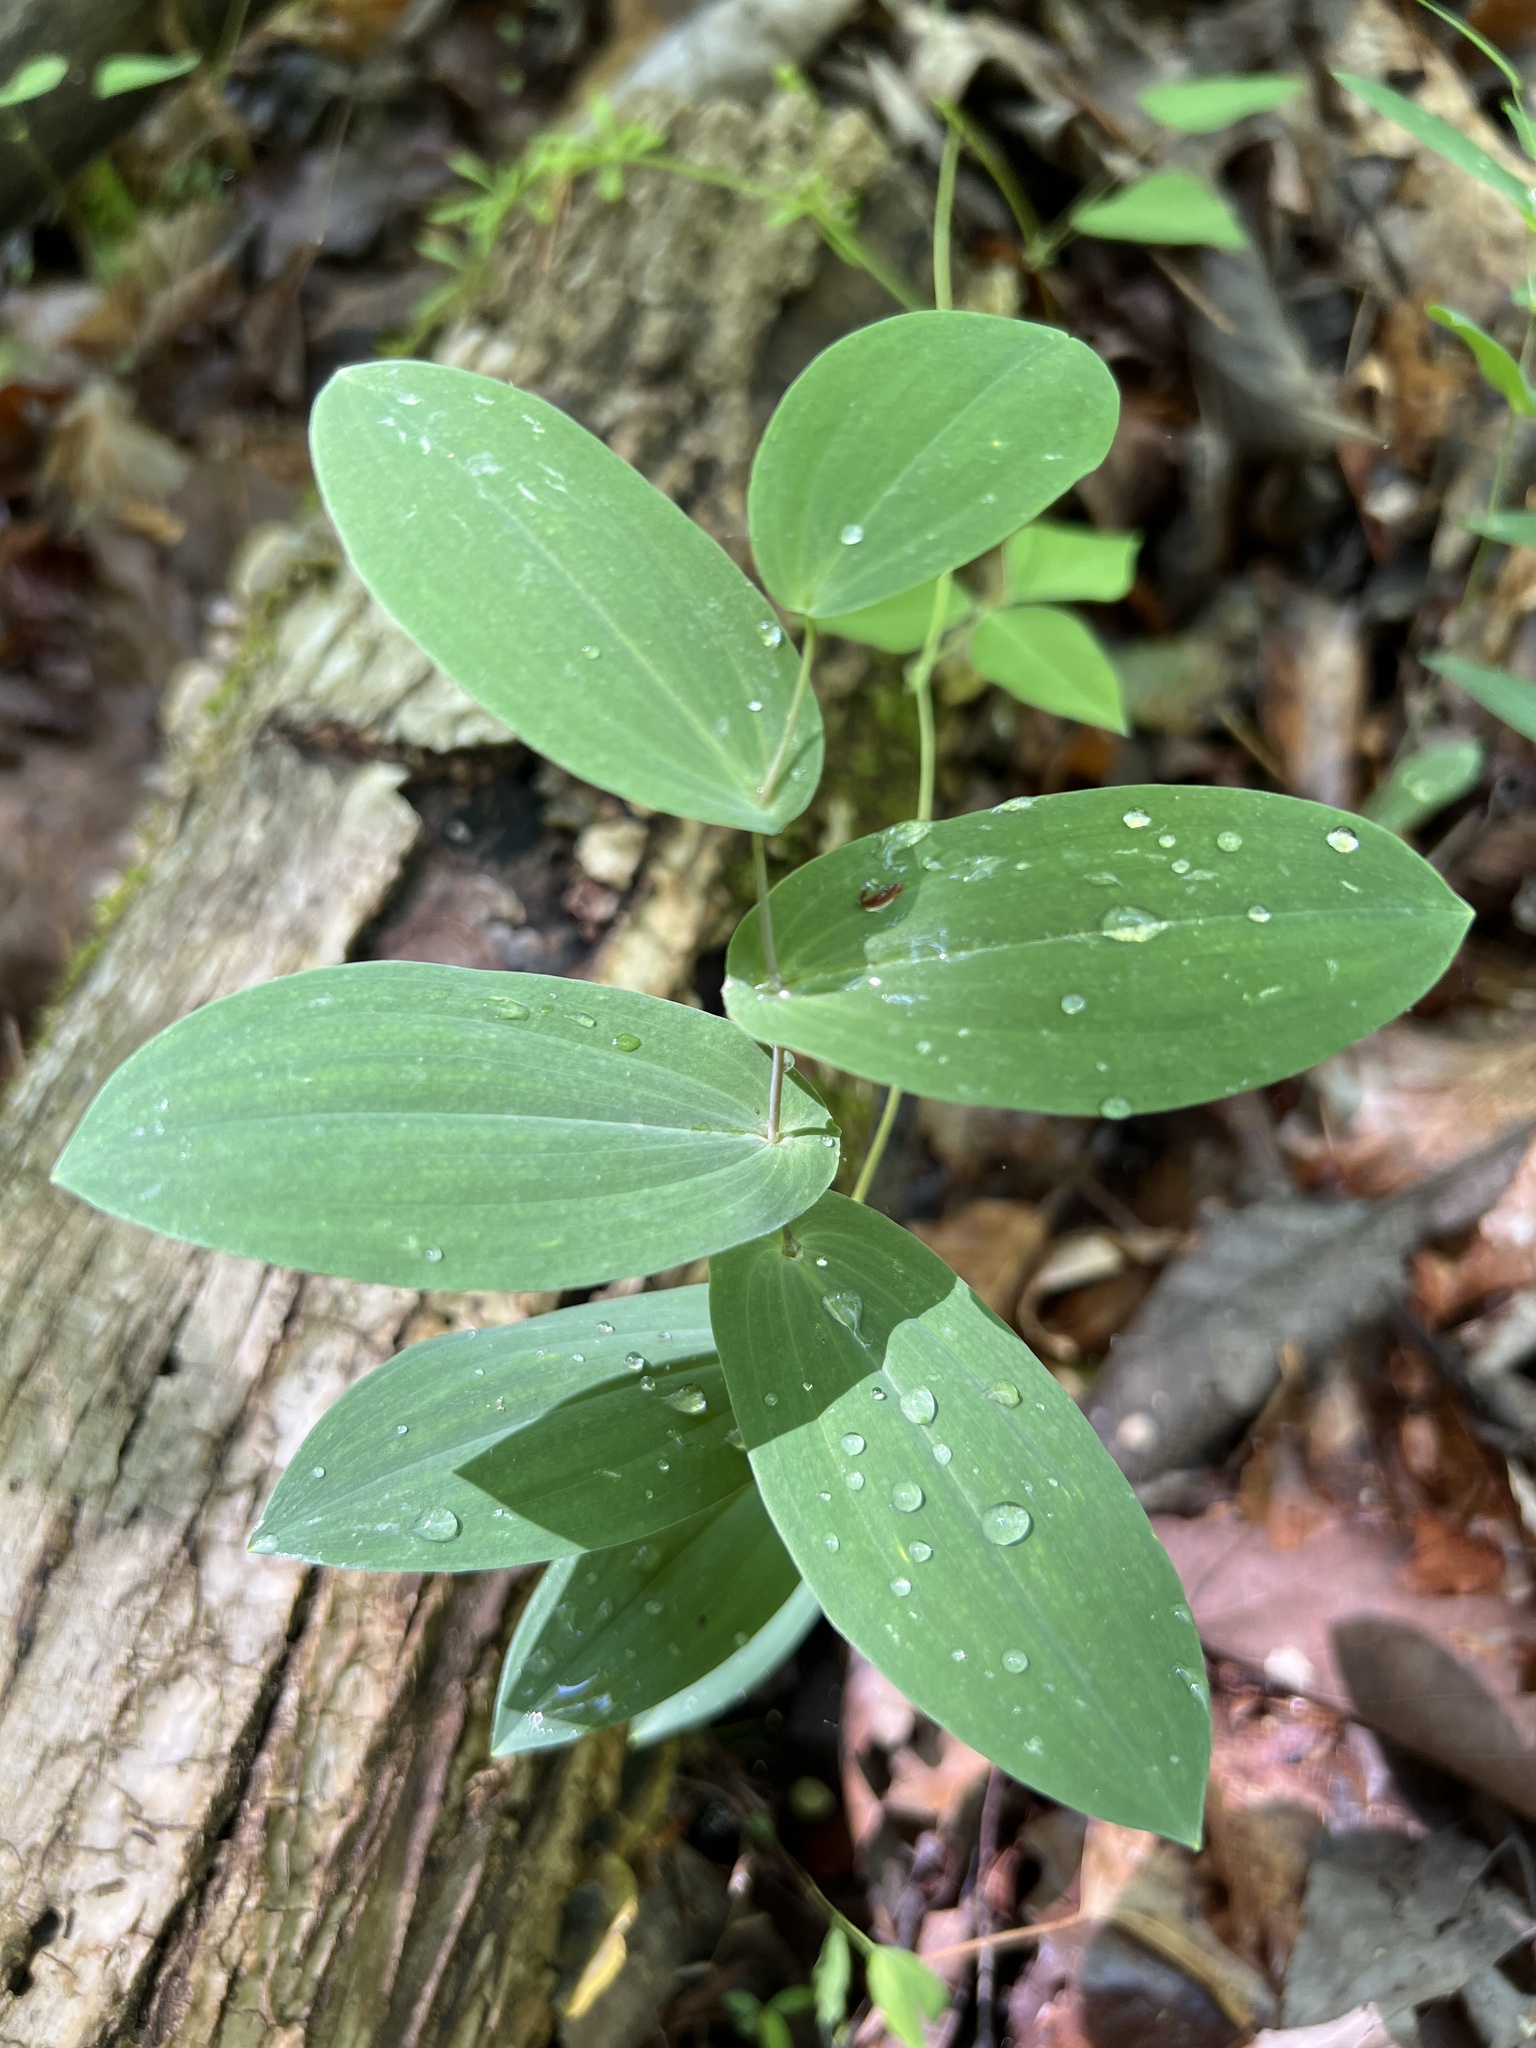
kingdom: Plantae
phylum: Tracheophyta
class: Liliopsida
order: Liliales
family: Colchicaceae
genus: Uvularia
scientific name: Uvularia perfoliata
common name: Perfoliate bellwort
